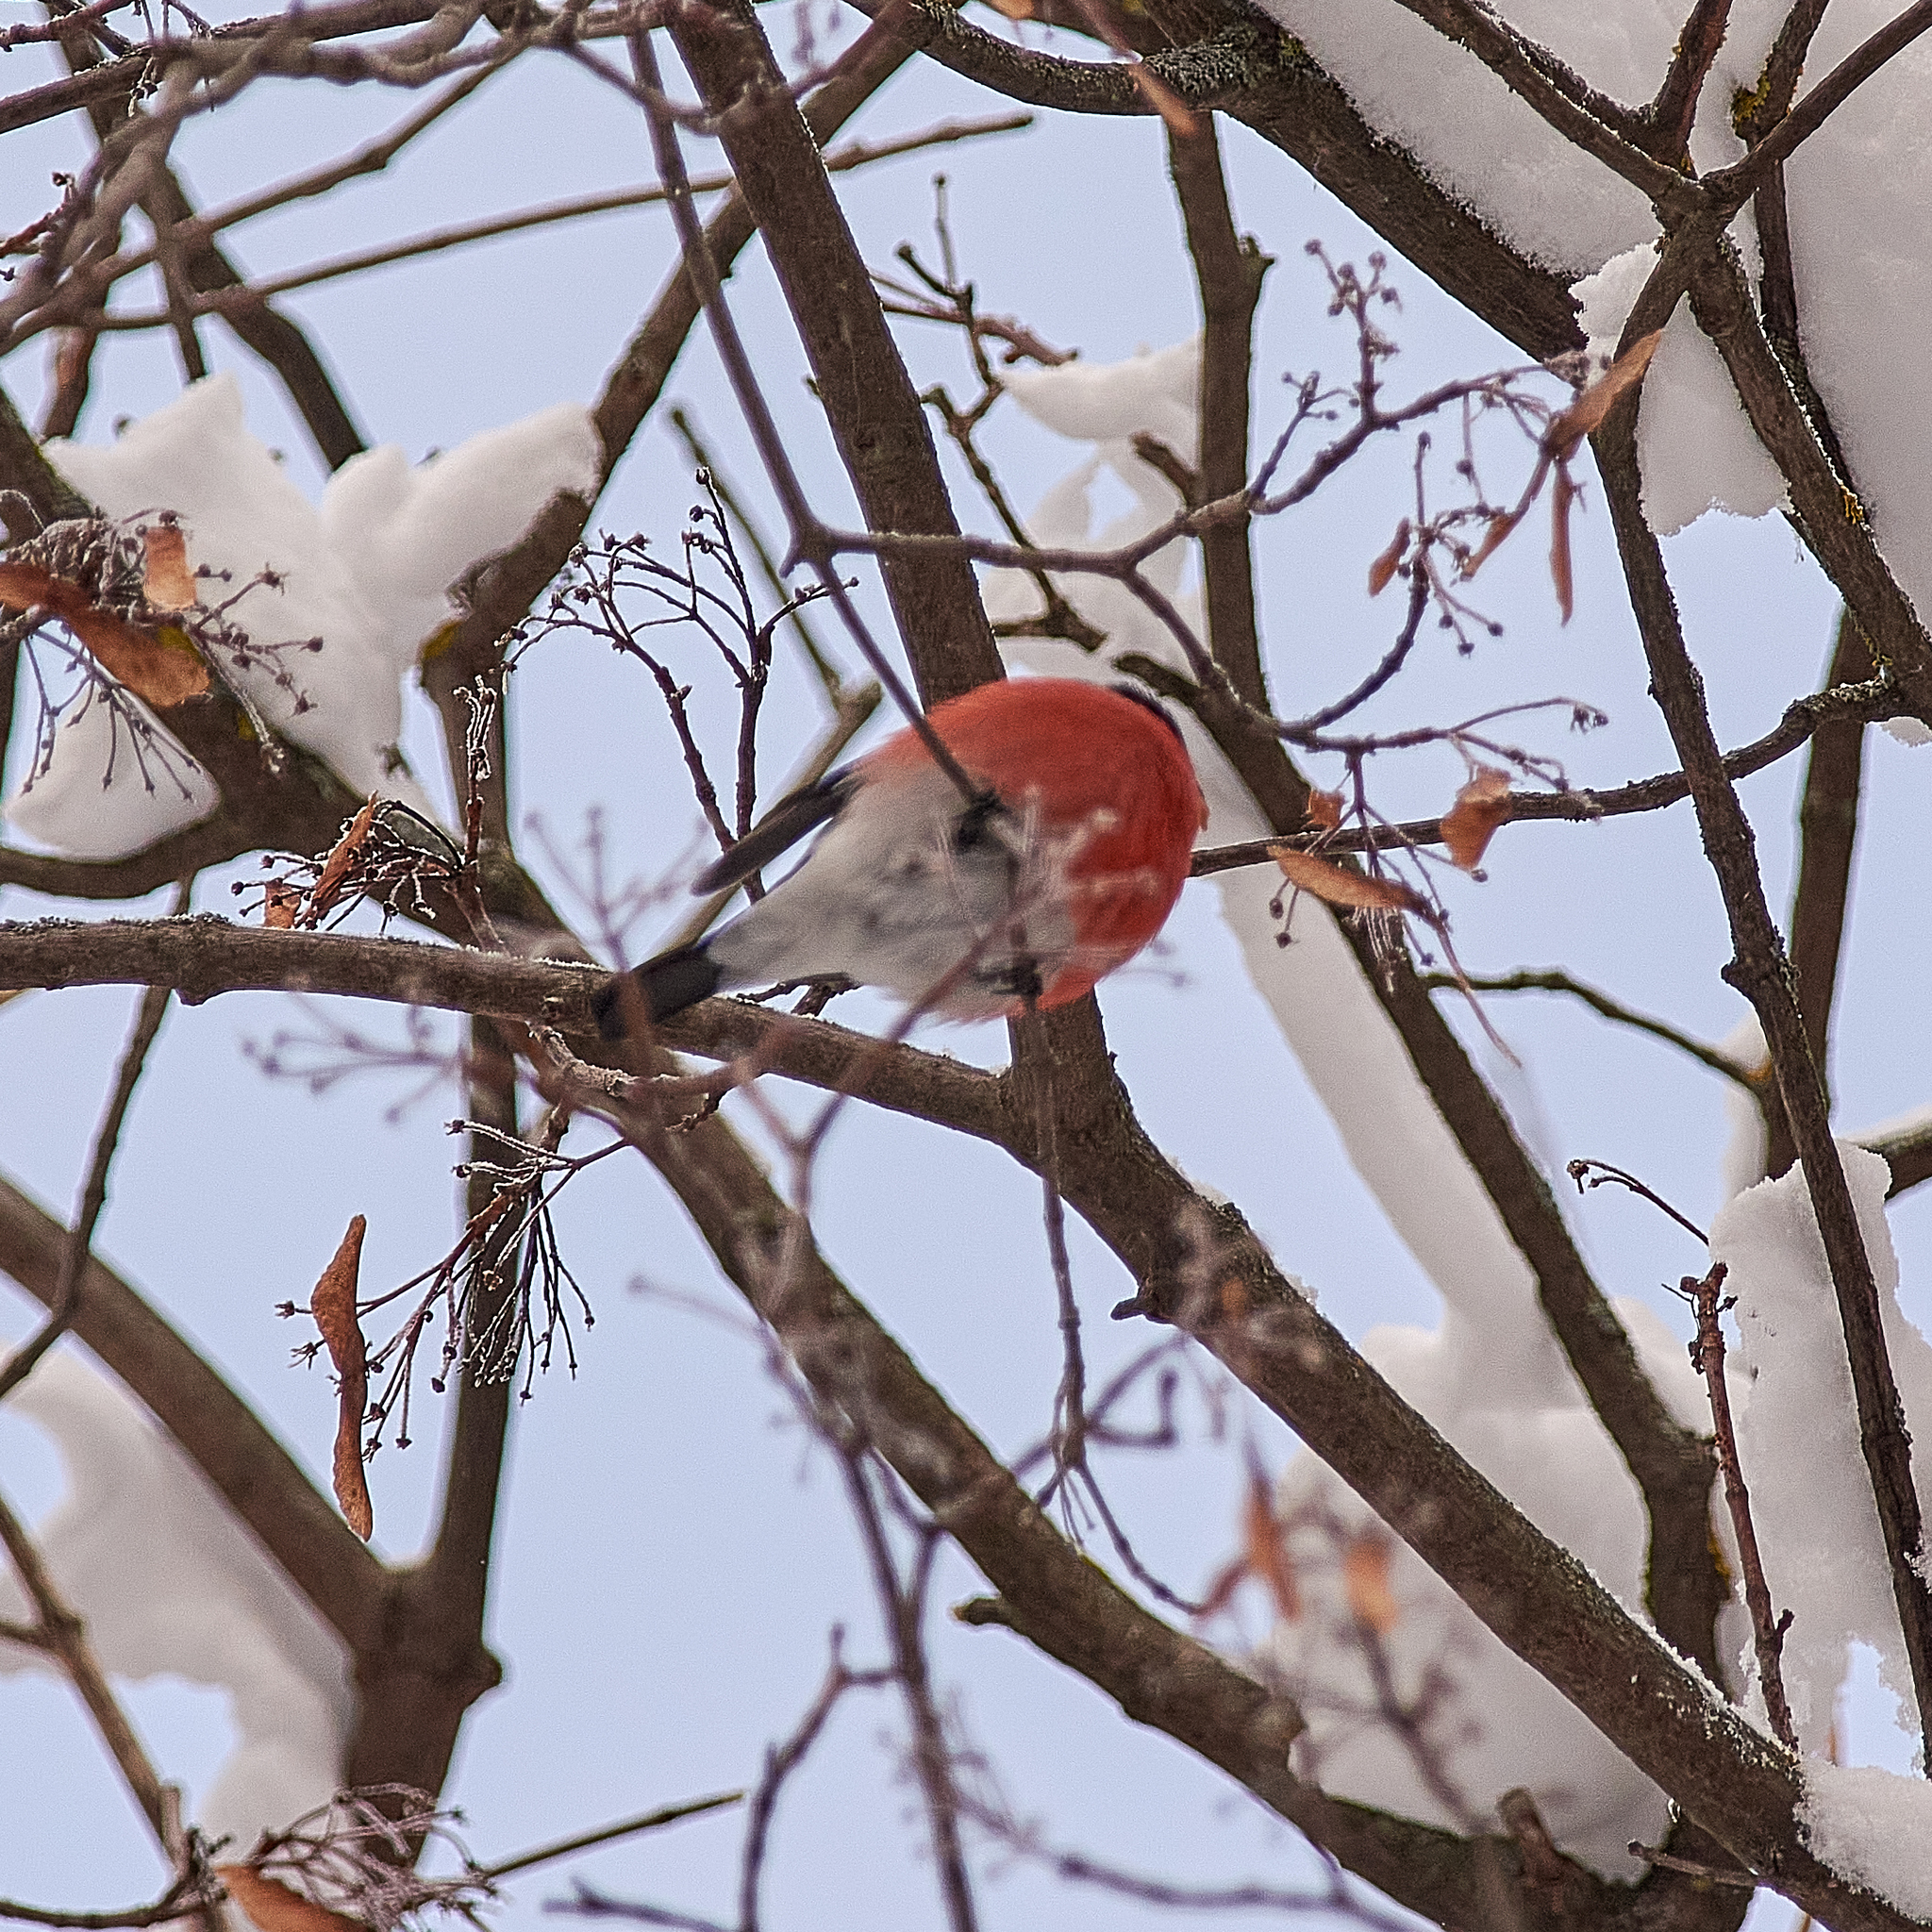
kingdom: Animalia
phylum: Chordata
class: Aves
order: Passeriformes
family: Fringillidae
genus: Pyrrhula
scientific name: Pyrrhula pyrrhula
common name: Eurasian bullfinch
